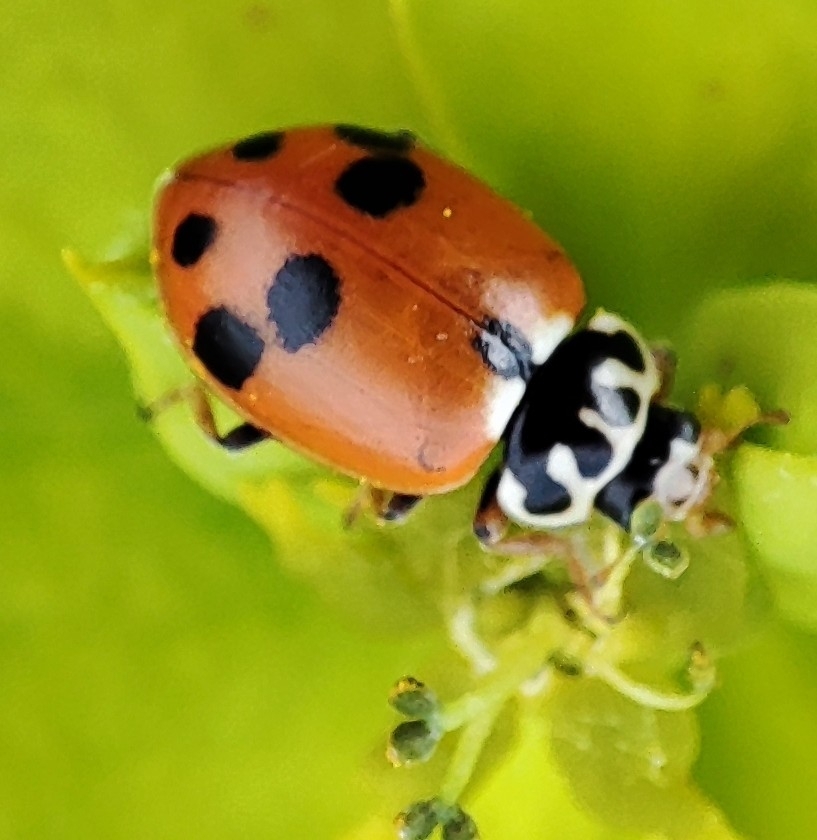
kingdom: Animalia
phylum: Arthropoda
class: Insecta
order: Coleoptera
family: Coccinellidae
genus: Hippodamia
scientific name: Hippodamia variegata
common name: Ladybird beetle
